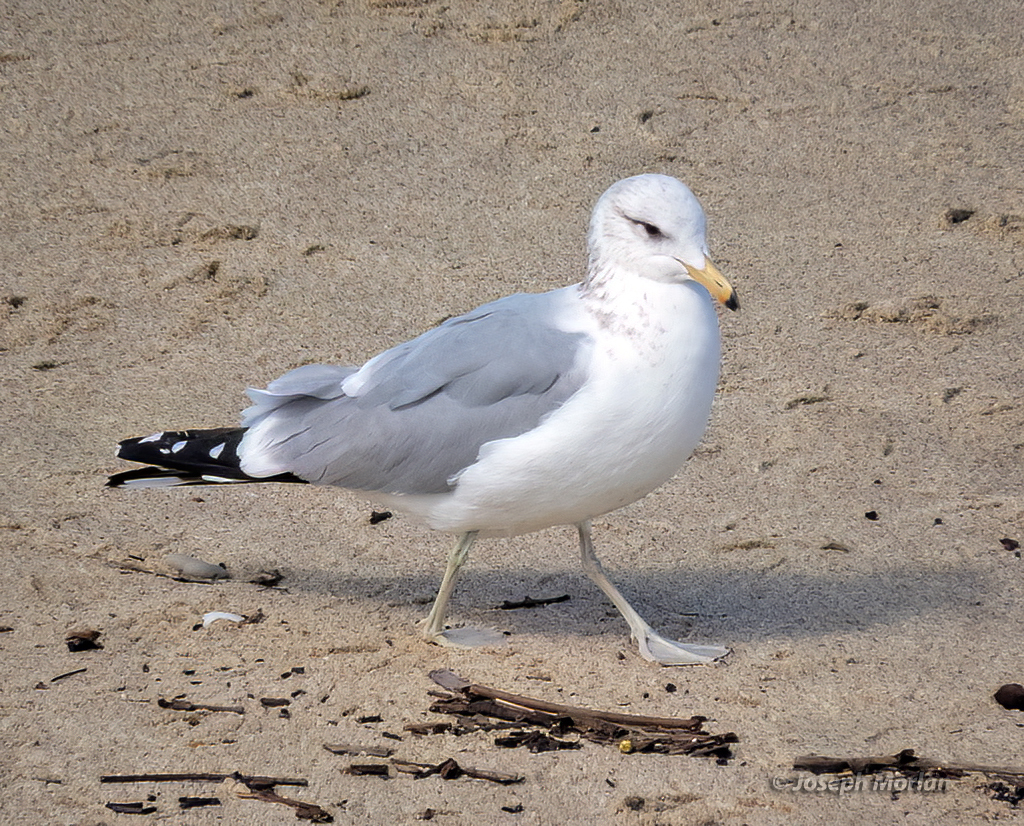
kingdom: Animalia
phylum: Chordata
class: Aves
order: Charadriiformes
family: Laridae
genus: Larus
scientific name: Larus californicus
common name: California gull
